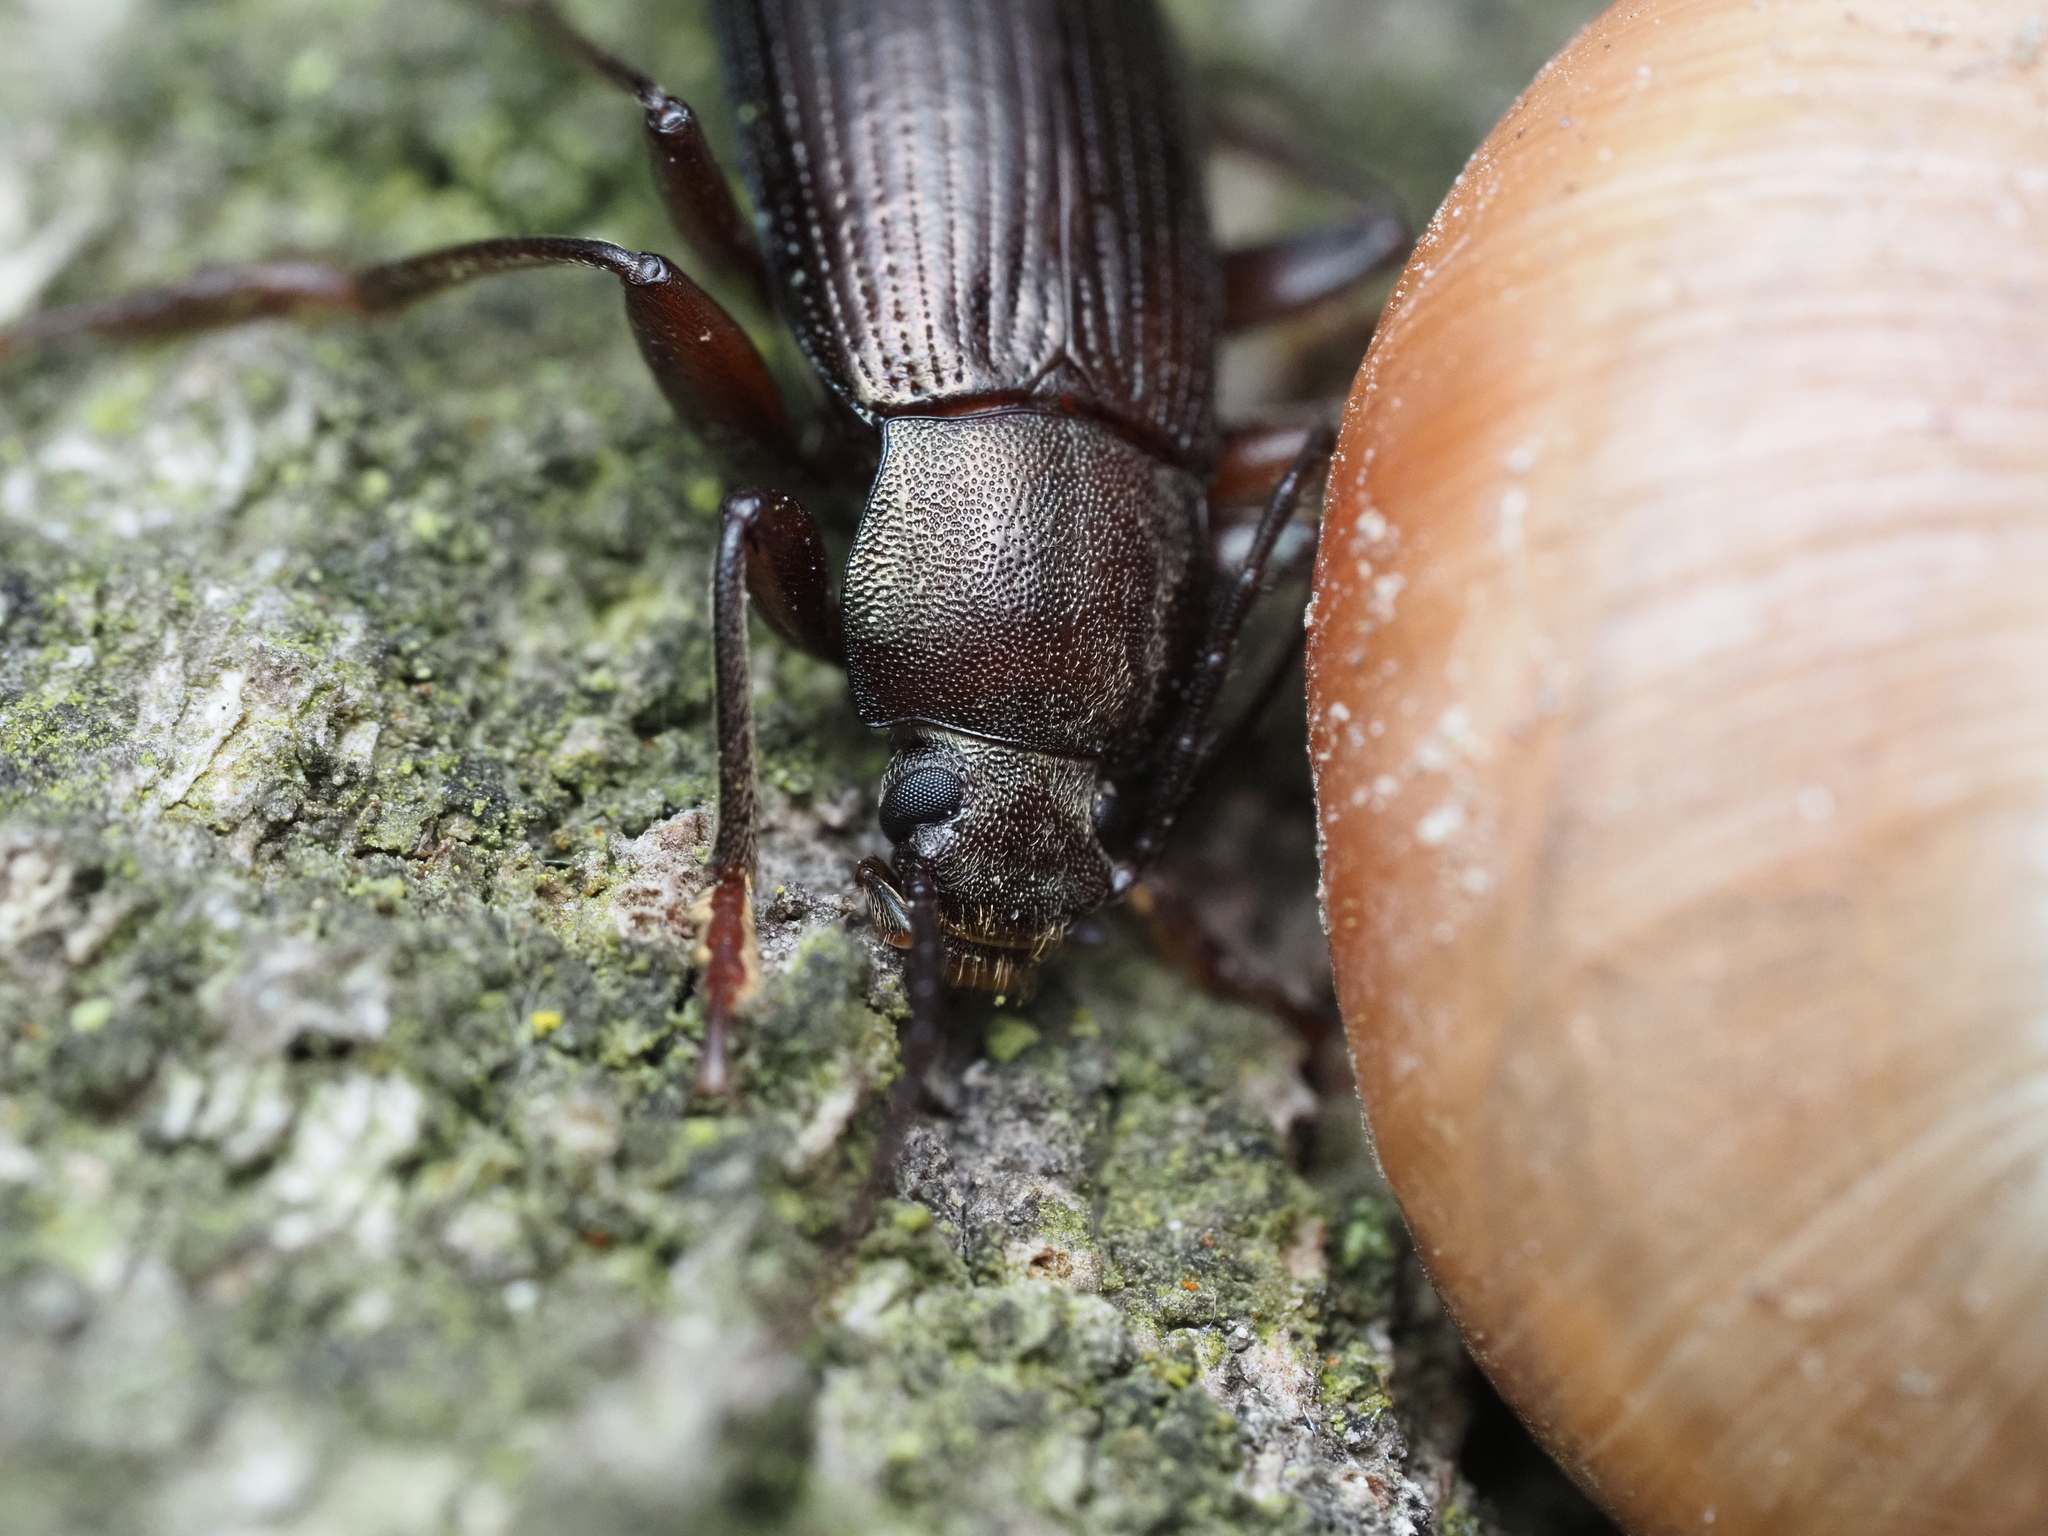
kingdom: Animalia
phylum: Arthropoda
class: Insecta
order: Coleoptera
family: Tenebrionidae
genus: Stenomax
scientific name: Stenomax aeneus
